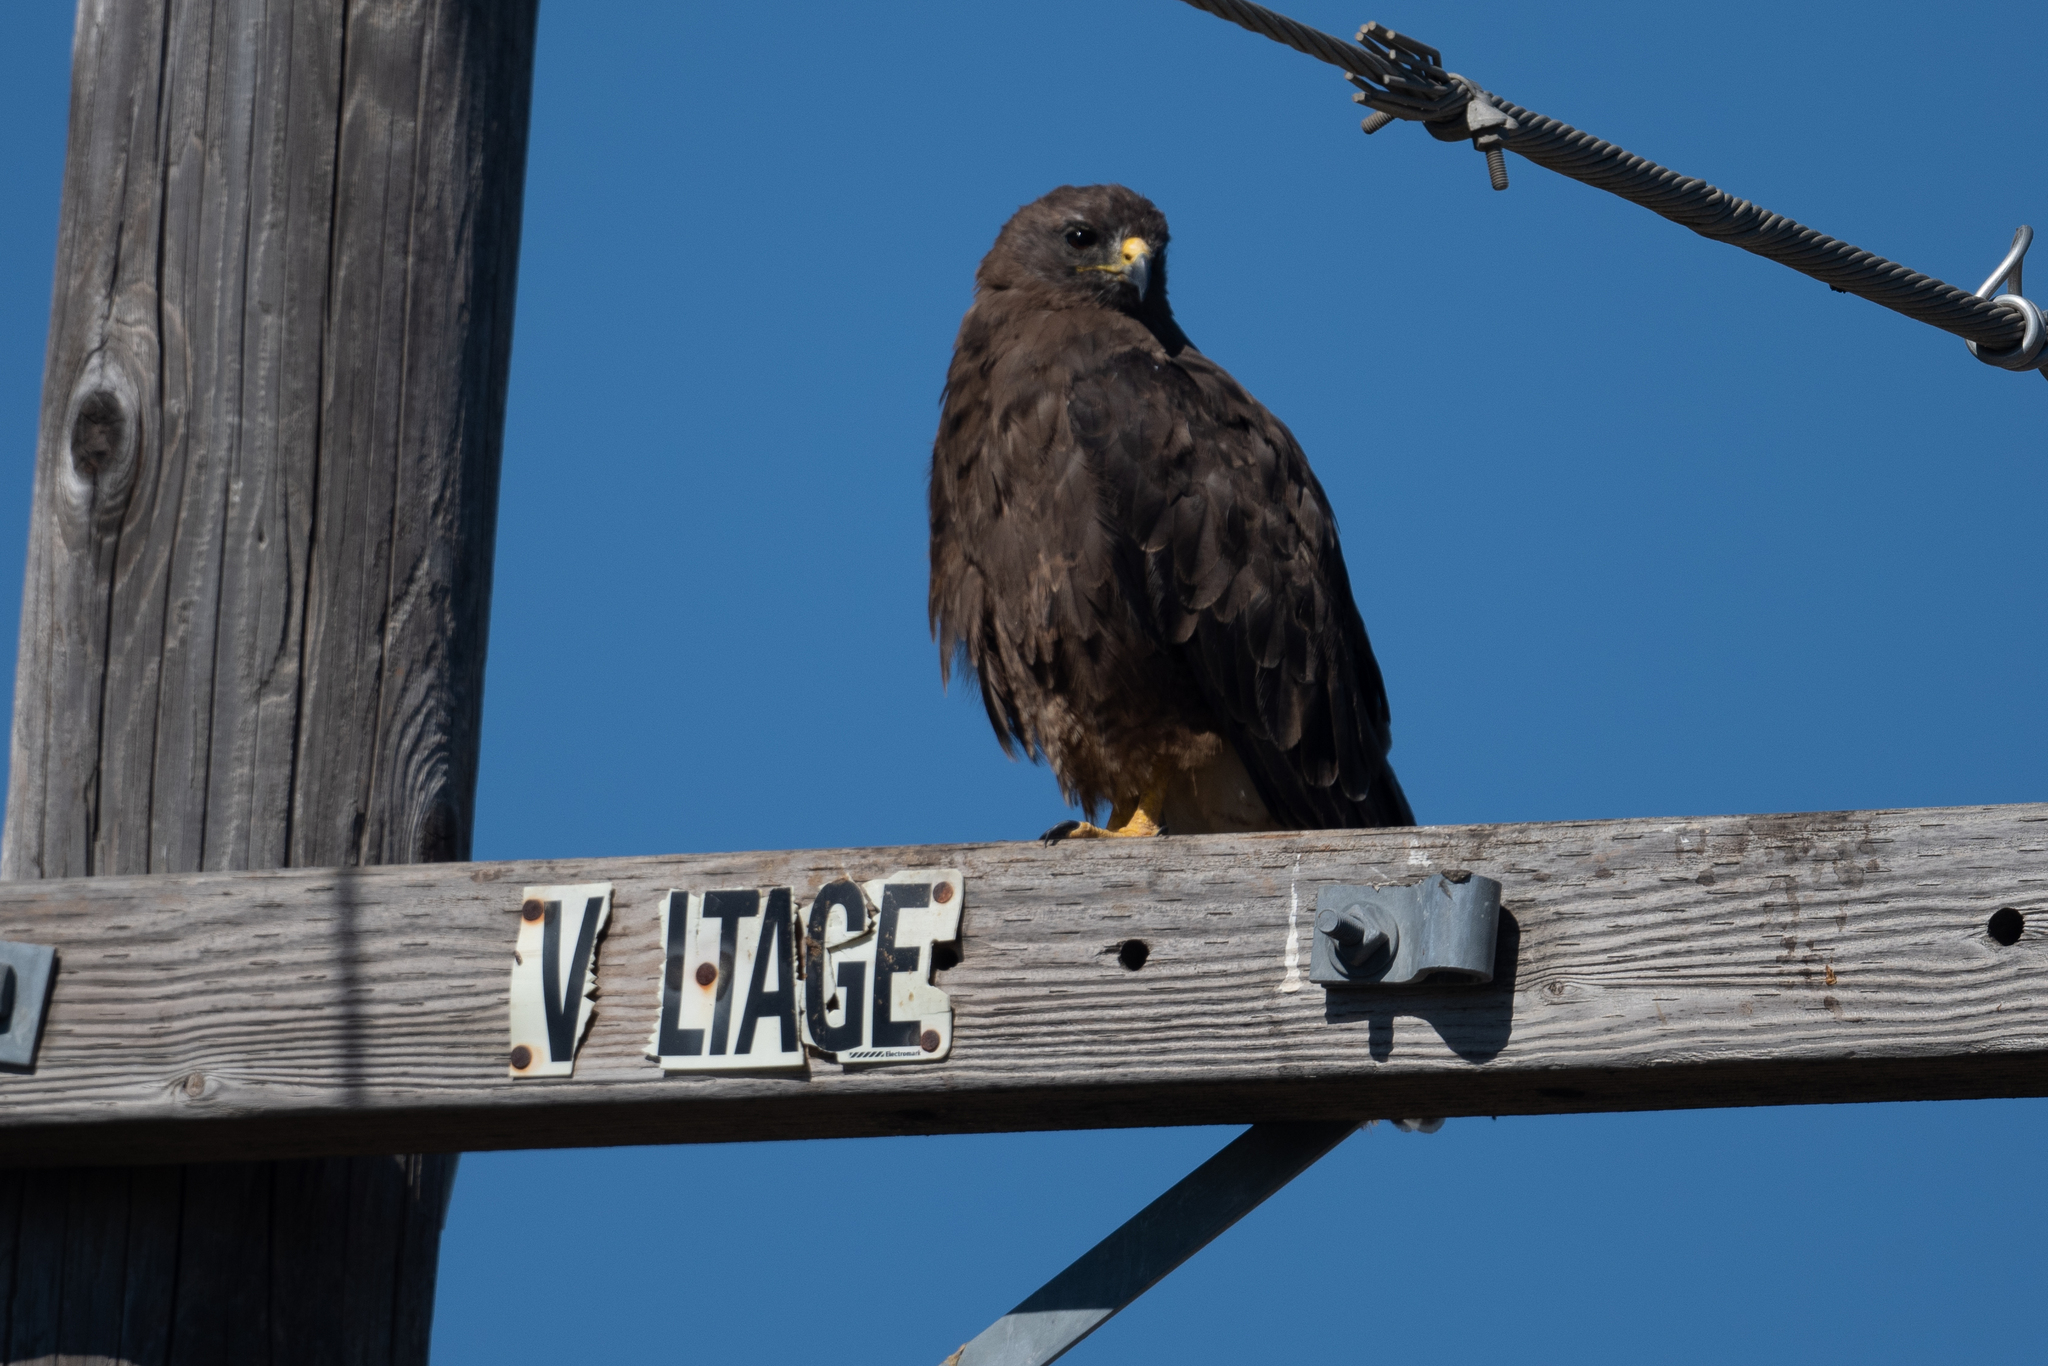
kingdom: Animalia
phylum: Chordata
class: Aves
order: Accipitriformes
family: Accipitridae
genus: Buteo
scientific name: Buteo swainsoni
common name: Swainson's hawk
